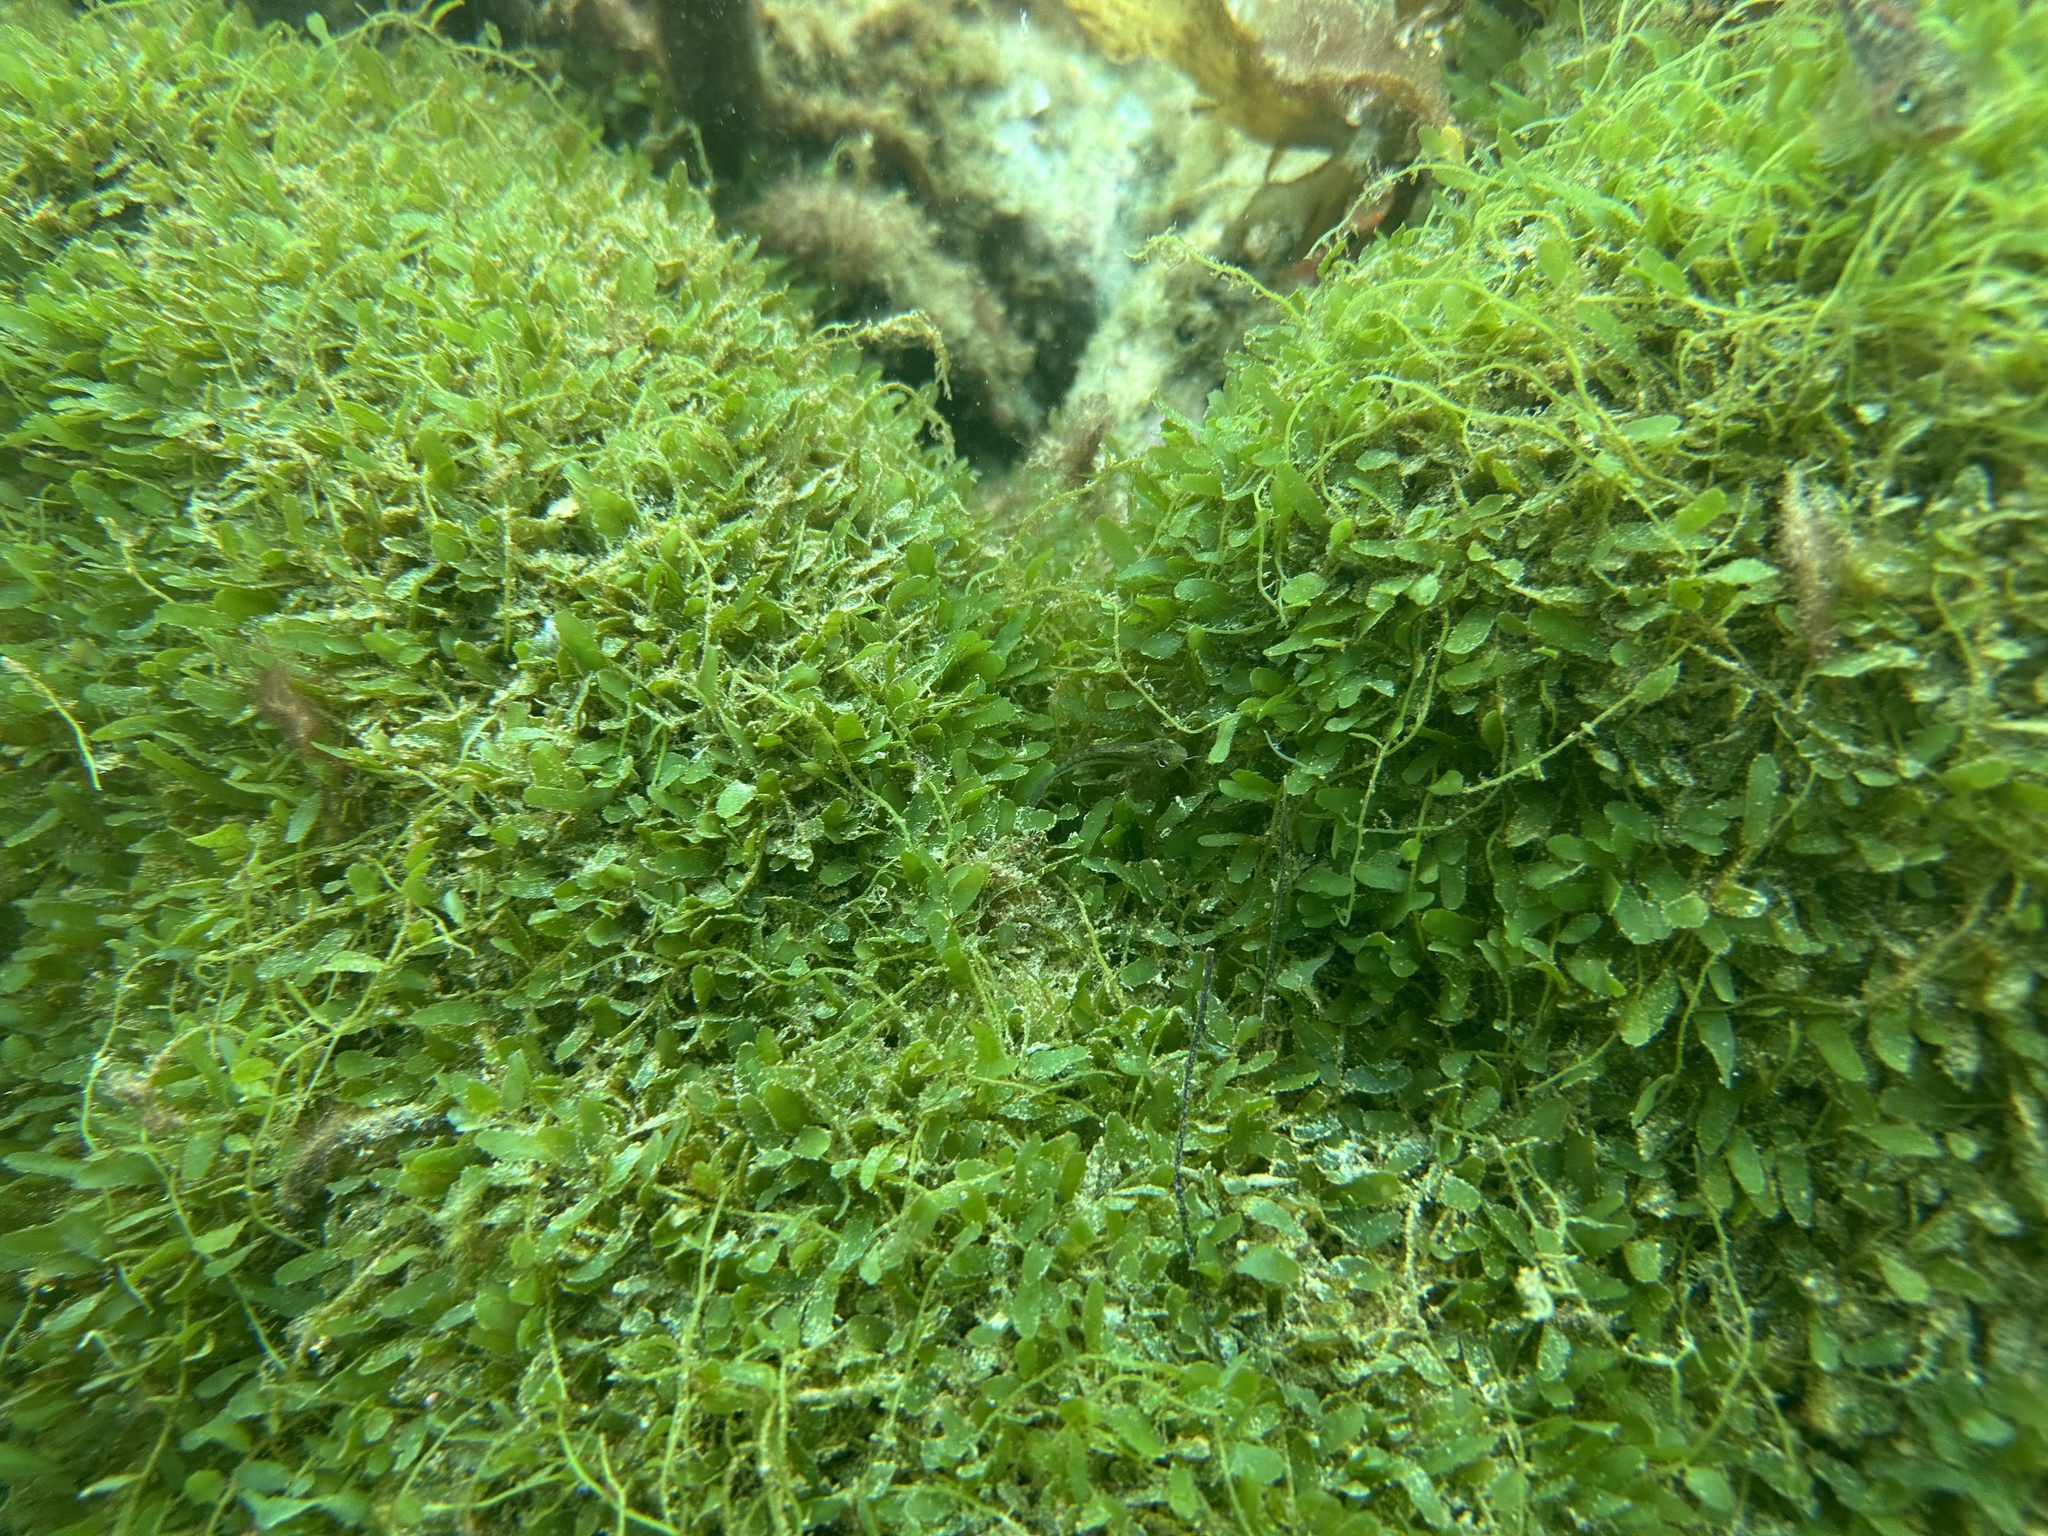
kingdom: Plantae
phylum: Chlorophyta
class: Ulvophyceae
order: Bryopsidales
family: Caulerpaceae
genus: Caulerpa
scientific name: Caulerpa brachypus
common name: Macroalgae
